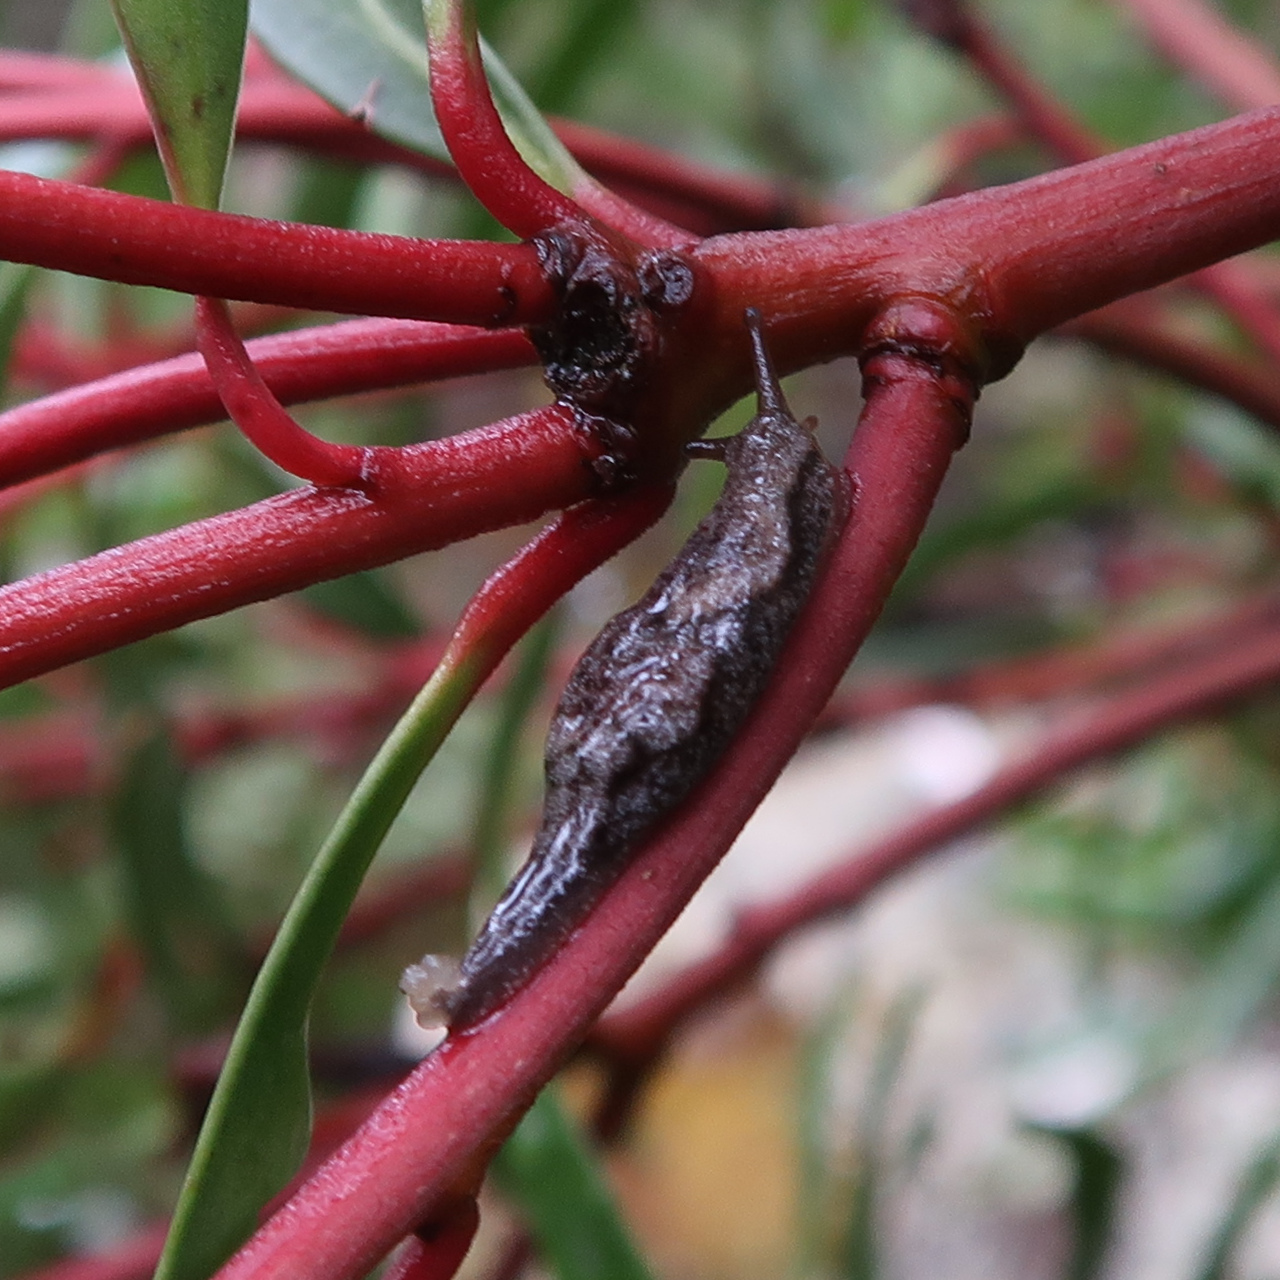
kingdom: Animalia
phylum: Mollusca
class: Gastropoda
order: Stylommatophora
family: Cystopeltidae
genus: Cystopelta
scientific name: Cystopelta petterdi
